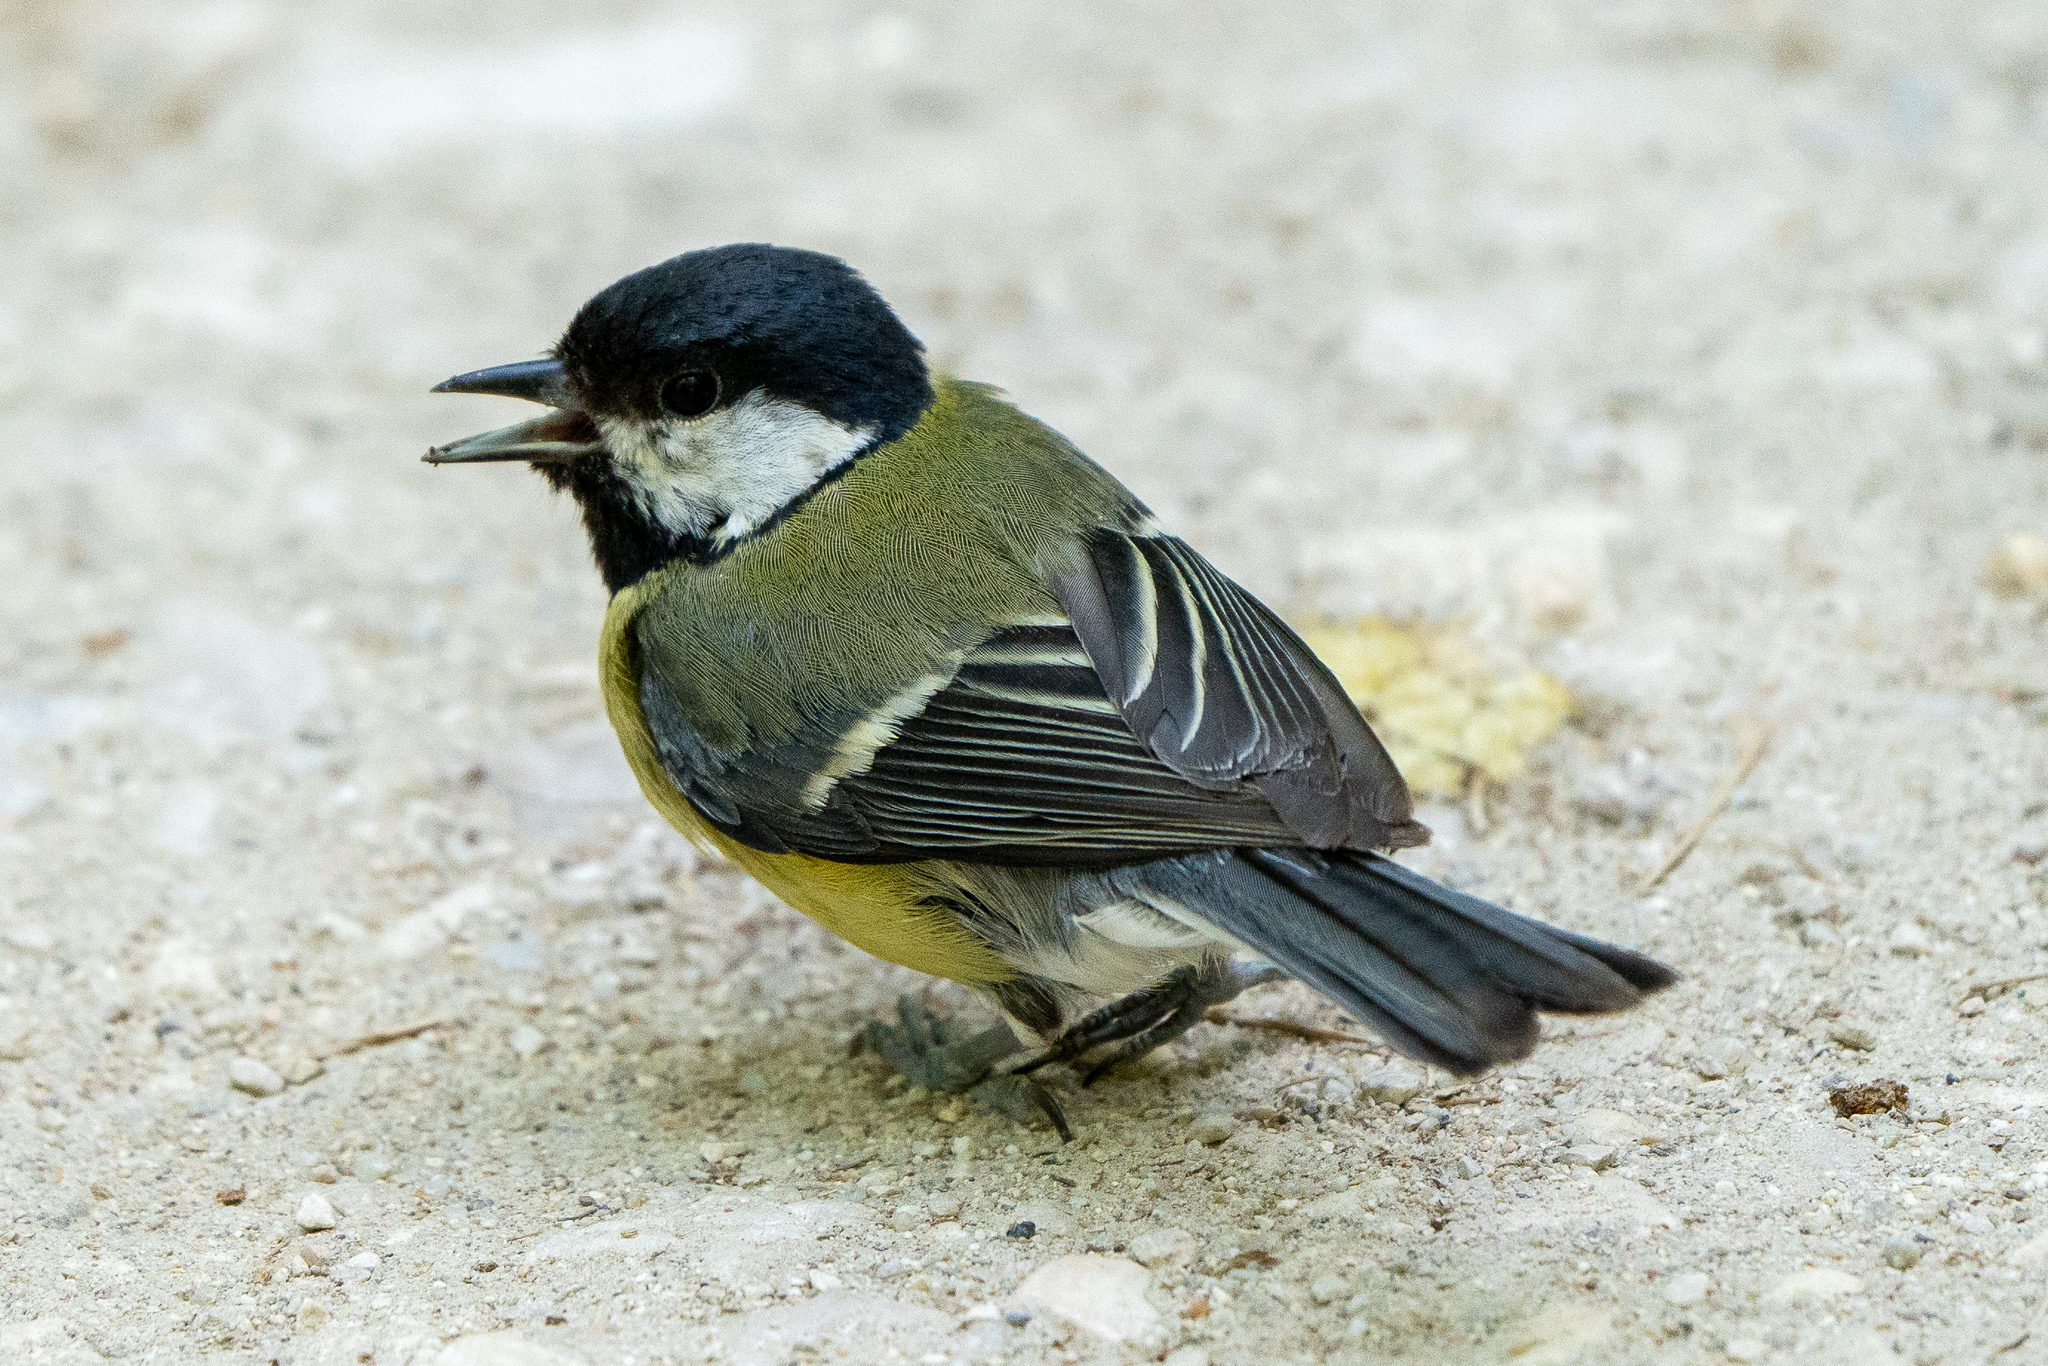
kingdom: Animalia
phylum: Chordata
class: Aves
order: Passeriformes
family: Paridae
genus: Parus
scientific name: Parus major
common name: Great tit
